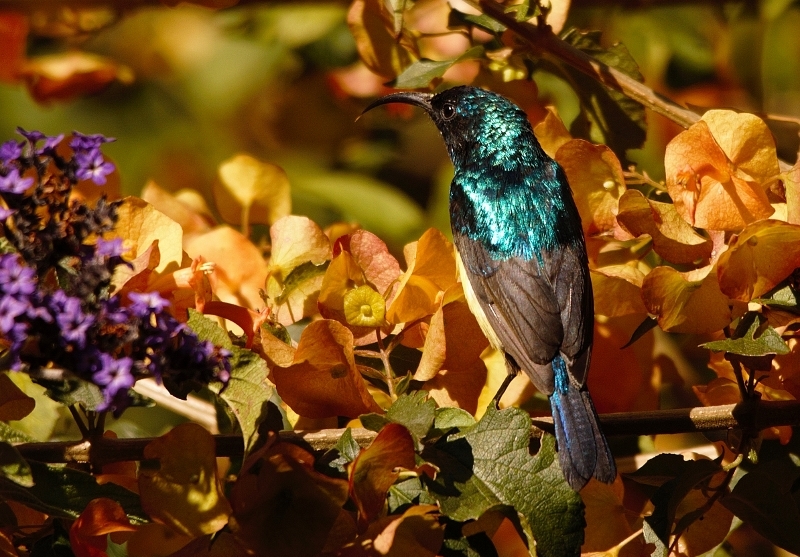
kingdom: Animalia
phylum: Chordata
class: Aves
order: Passeriformes
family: Nectariniidae
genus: Cinnyris
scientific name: Cinnyris venustus
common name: Variable sunbird
